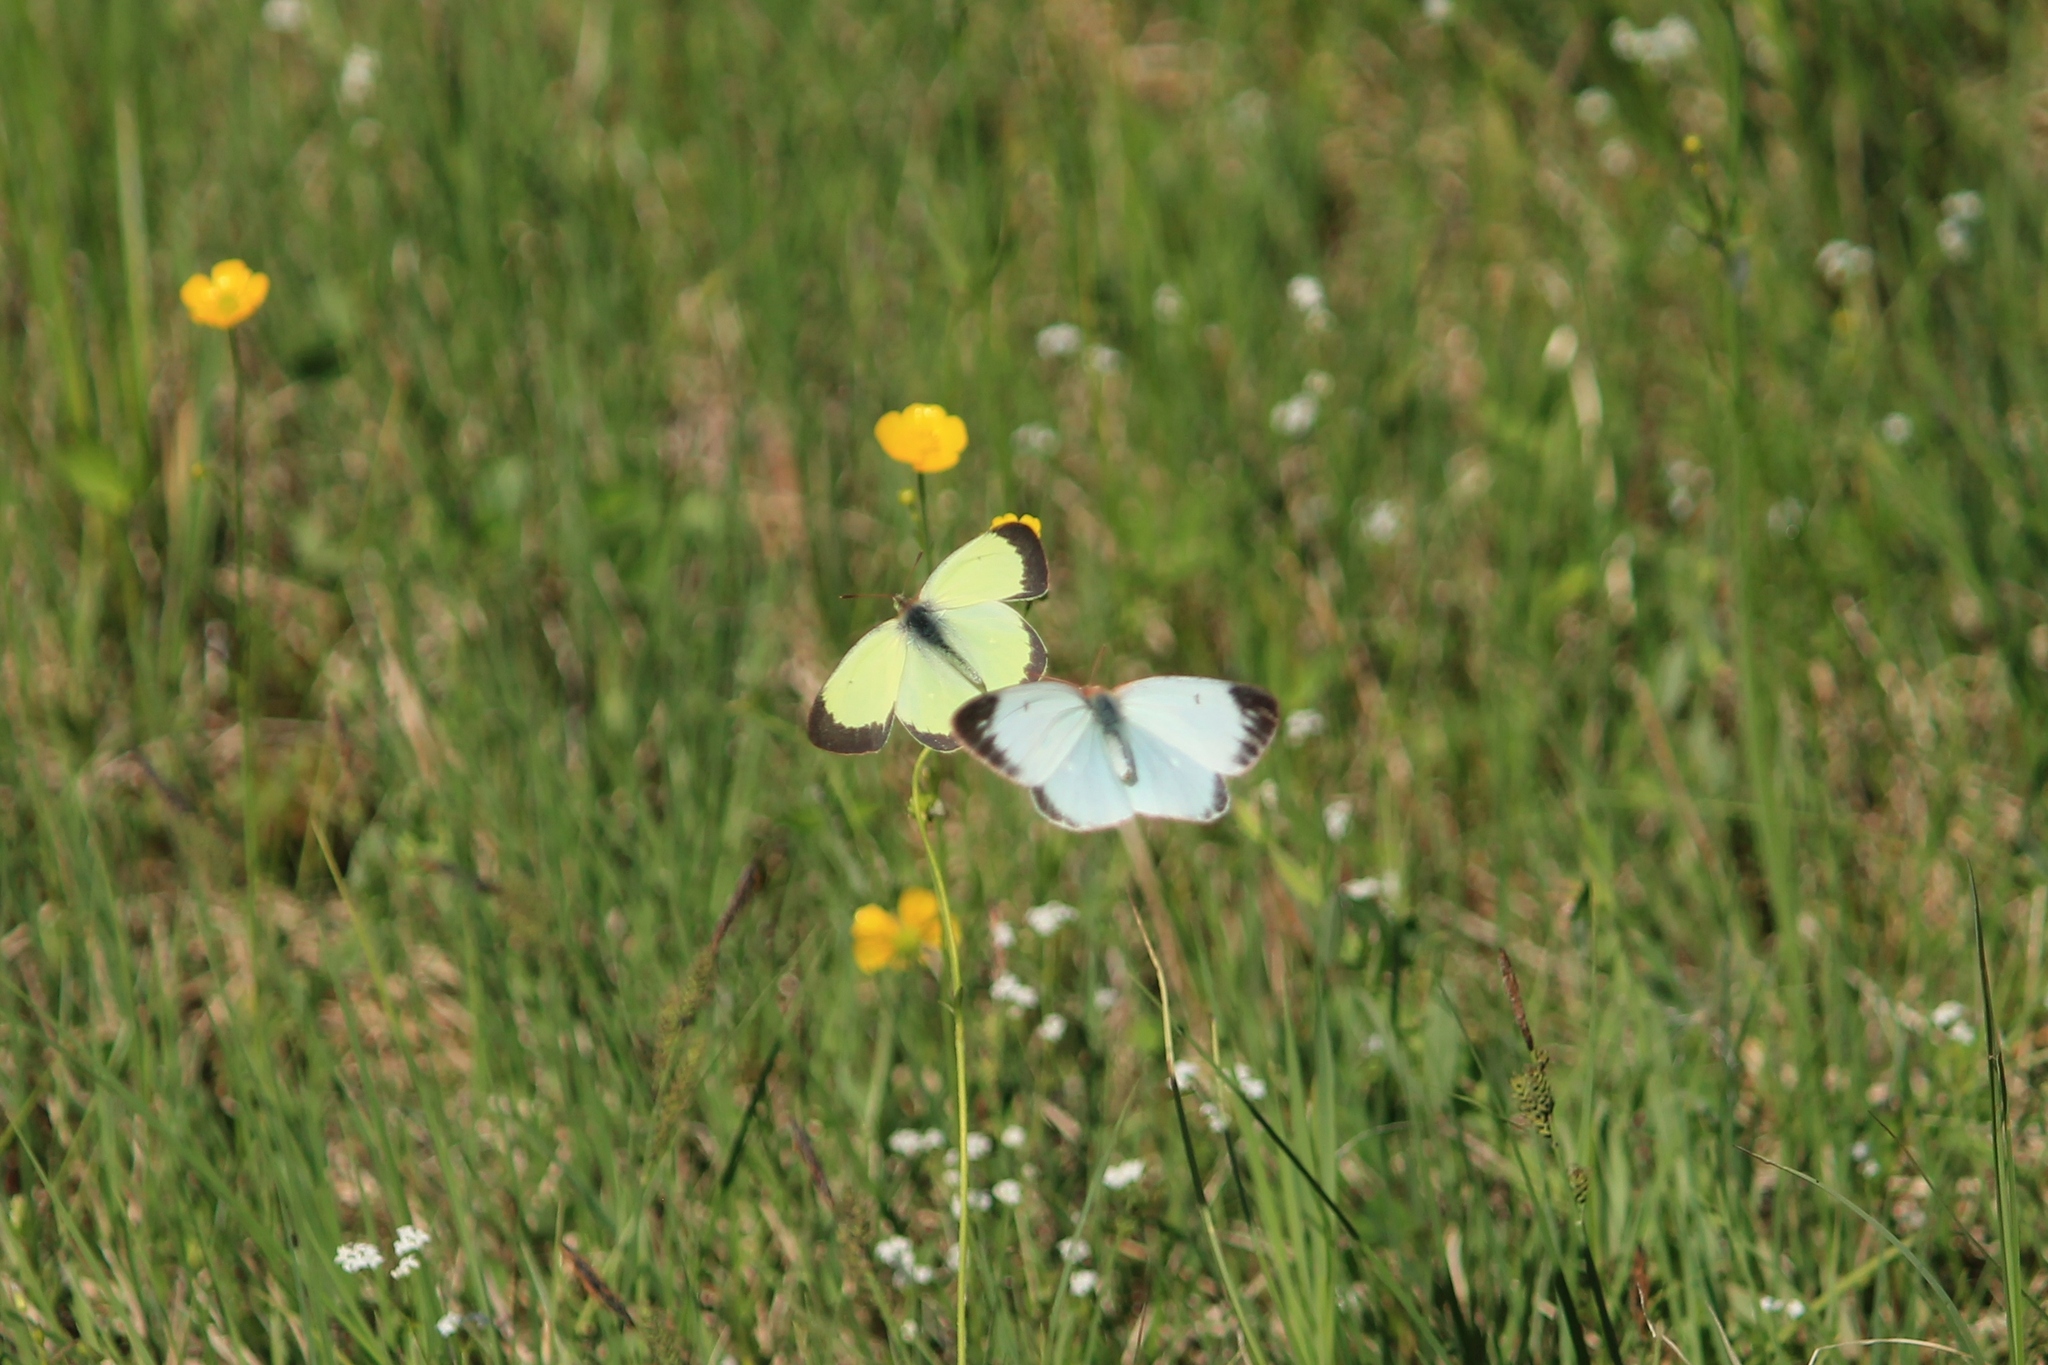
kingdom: Animalia
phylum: Arthropoda
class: Insecta
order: Lepidoptera
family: Pieridae
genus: Colias
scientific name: Colias palaeno
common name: Moorland clouded yellow
